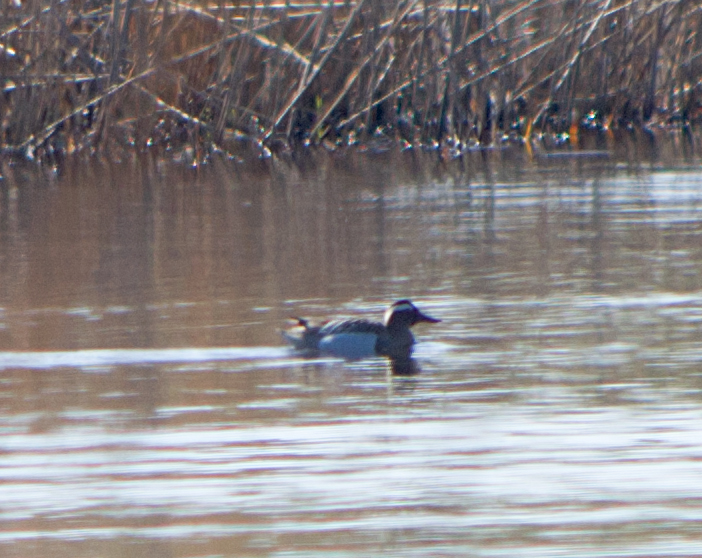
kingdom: Animalia
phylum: Chordata
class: Aves
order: Anseriformes
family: Anatidae
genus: Spatula
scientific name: Spatula querquedula
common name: Garganey
